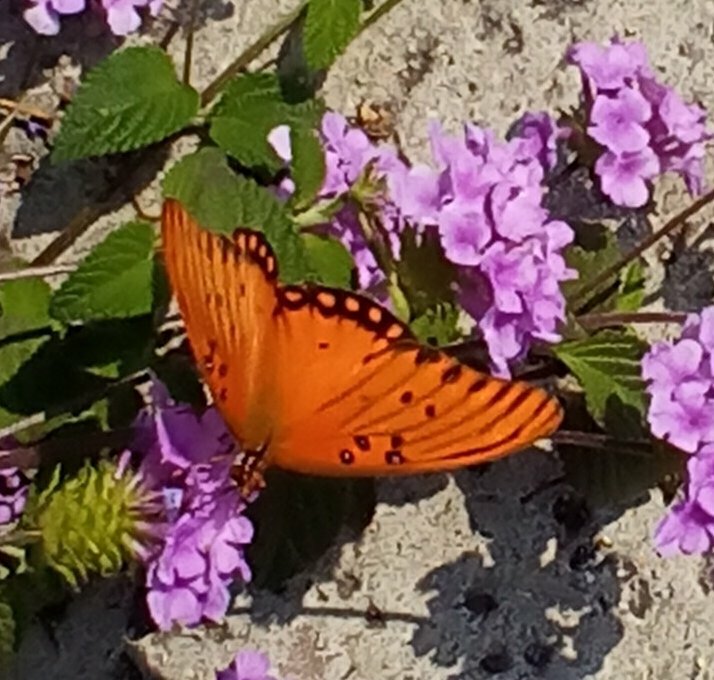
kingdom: Animalia
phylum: Arthropoda
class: Insecta
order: Lepidoptera
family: Nymphalidae
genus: Dione
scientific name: Dione vanillae
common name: Gulf fritillary
